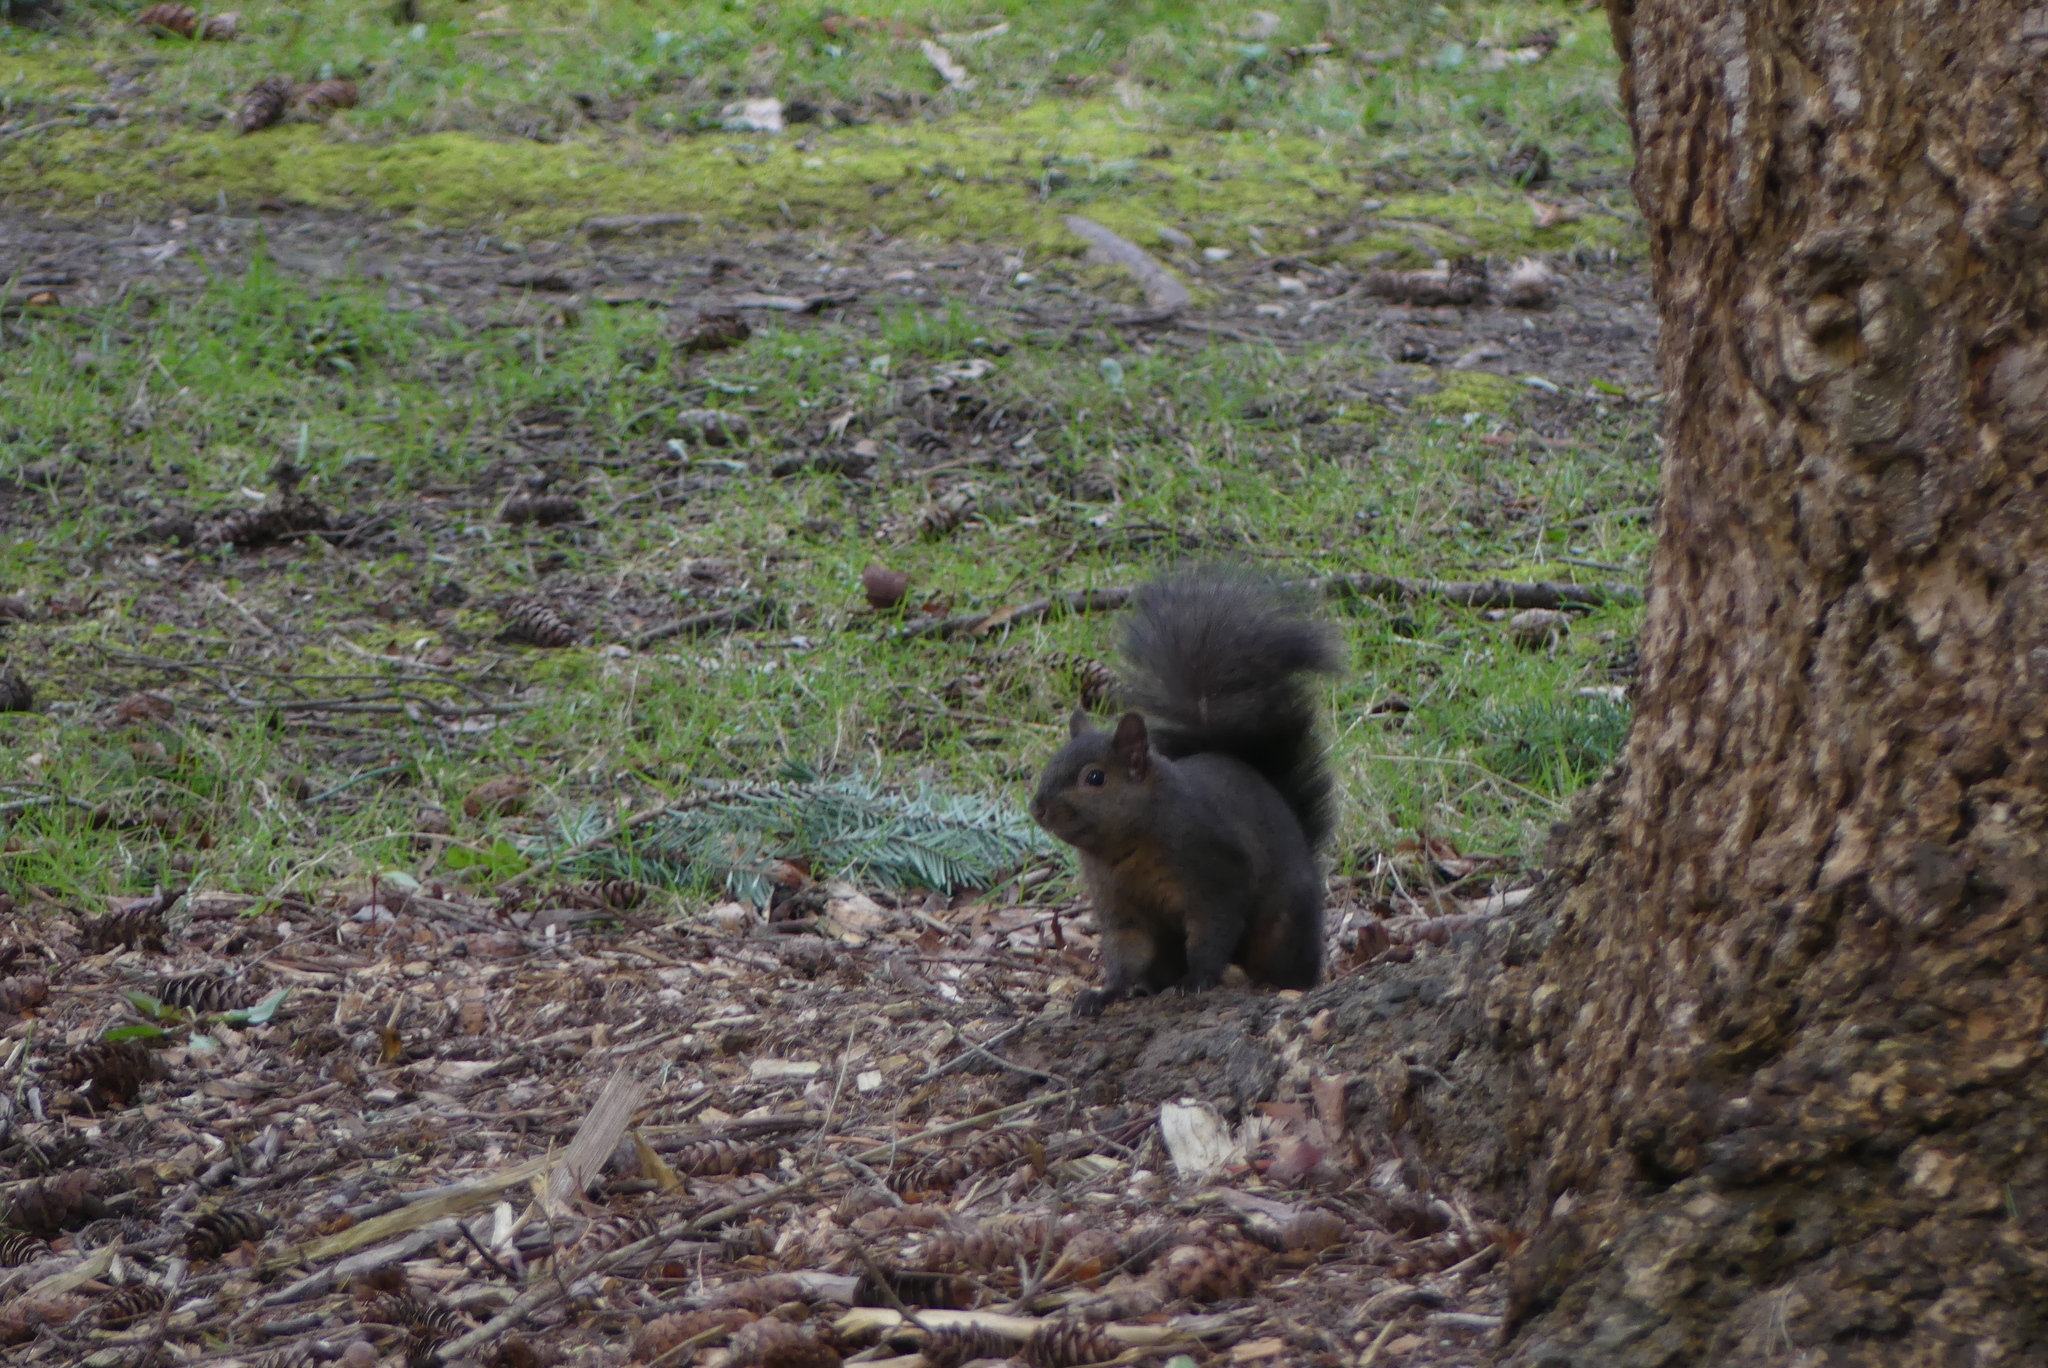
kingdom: Animalia
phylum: Chordata
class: Mammalia
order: Rodentia
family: Sciuridae
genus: Sciurus
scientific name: Sciurus carolinensis
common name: Eastern gray squirrel
